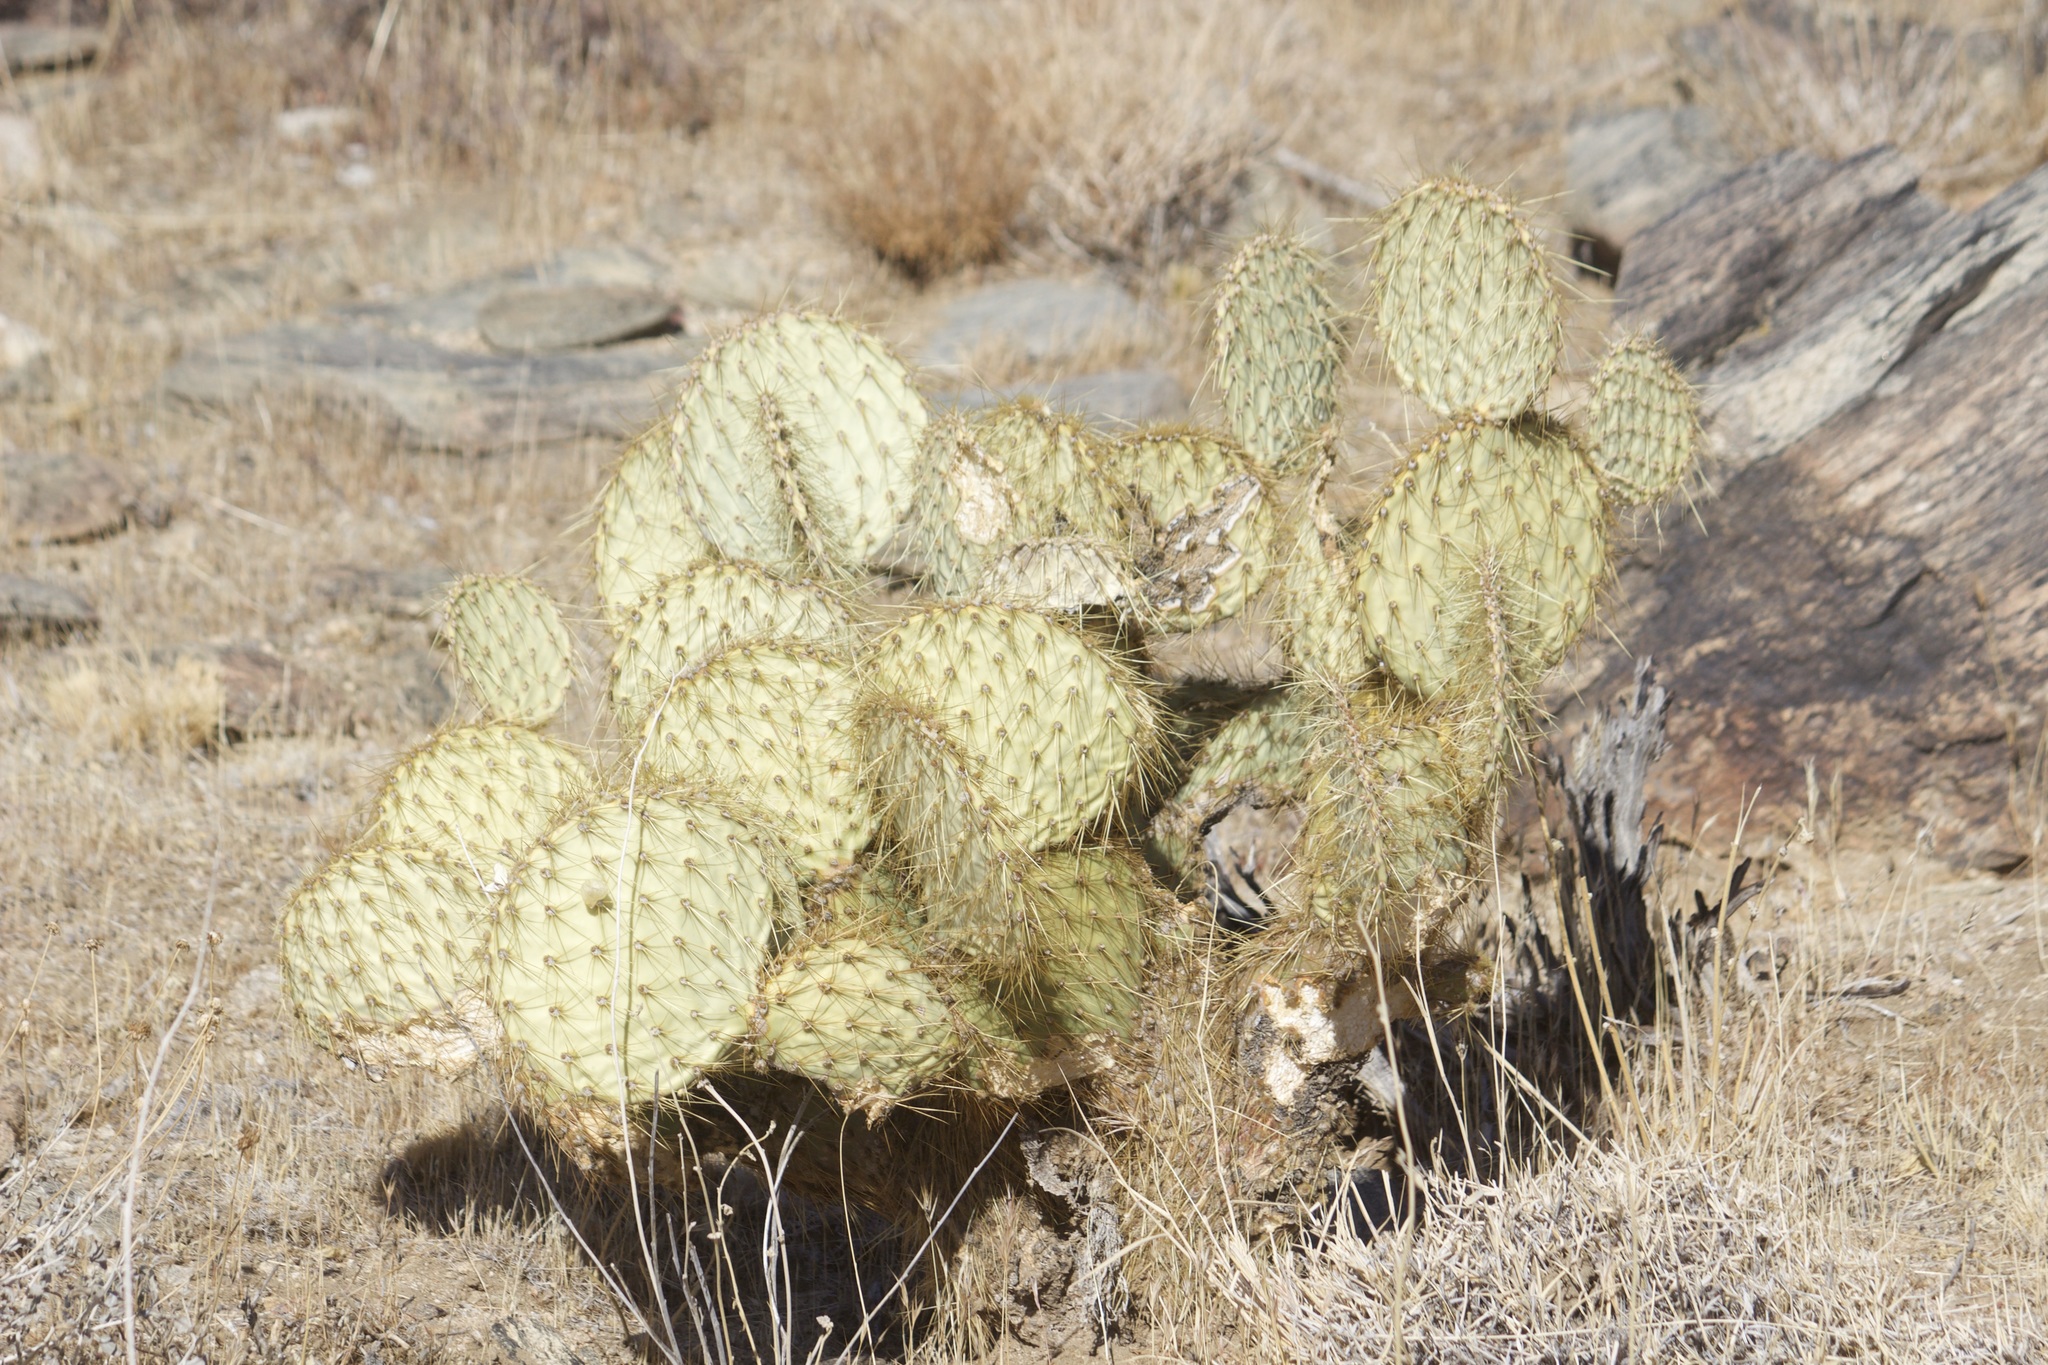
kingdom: Plantae
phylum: Tracheophyta
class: Magnoliopsida
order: Caryophyllales
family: Cactaceae
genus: Opuntia
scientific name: Opuntia chlorotica
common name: Dollar-joint prickly-pear
